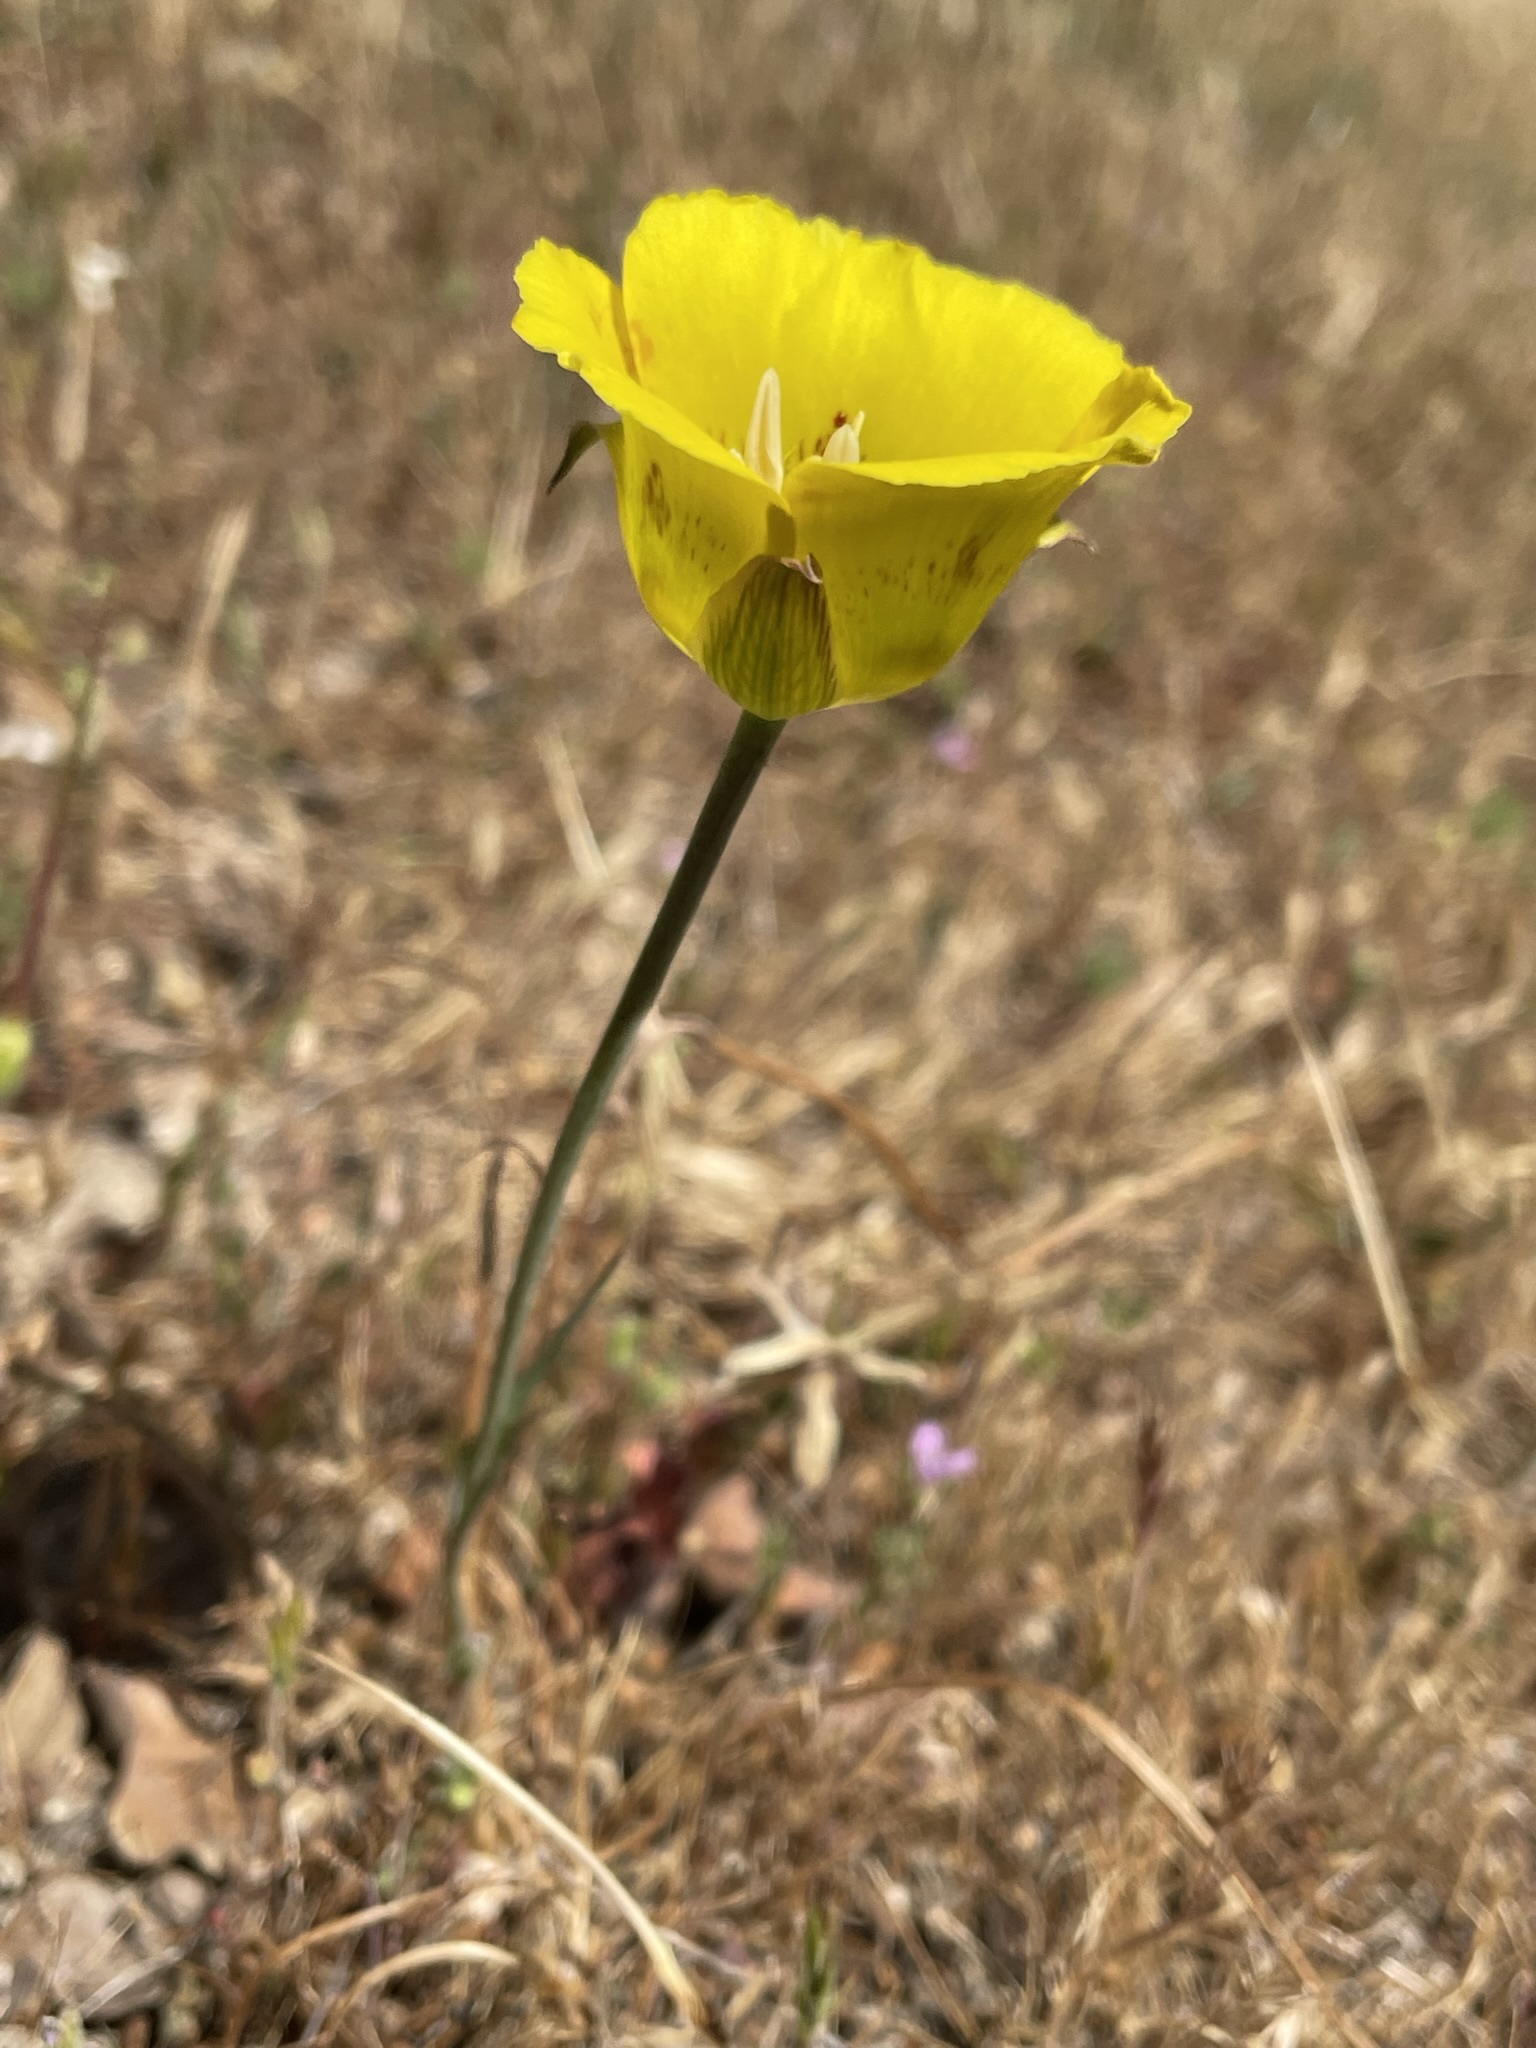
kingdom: Plantae
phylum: Tracheophyta
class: Liliopsida
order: Liliales
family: Liliaceae
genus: Calochortus
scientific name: Calochortus luteus
